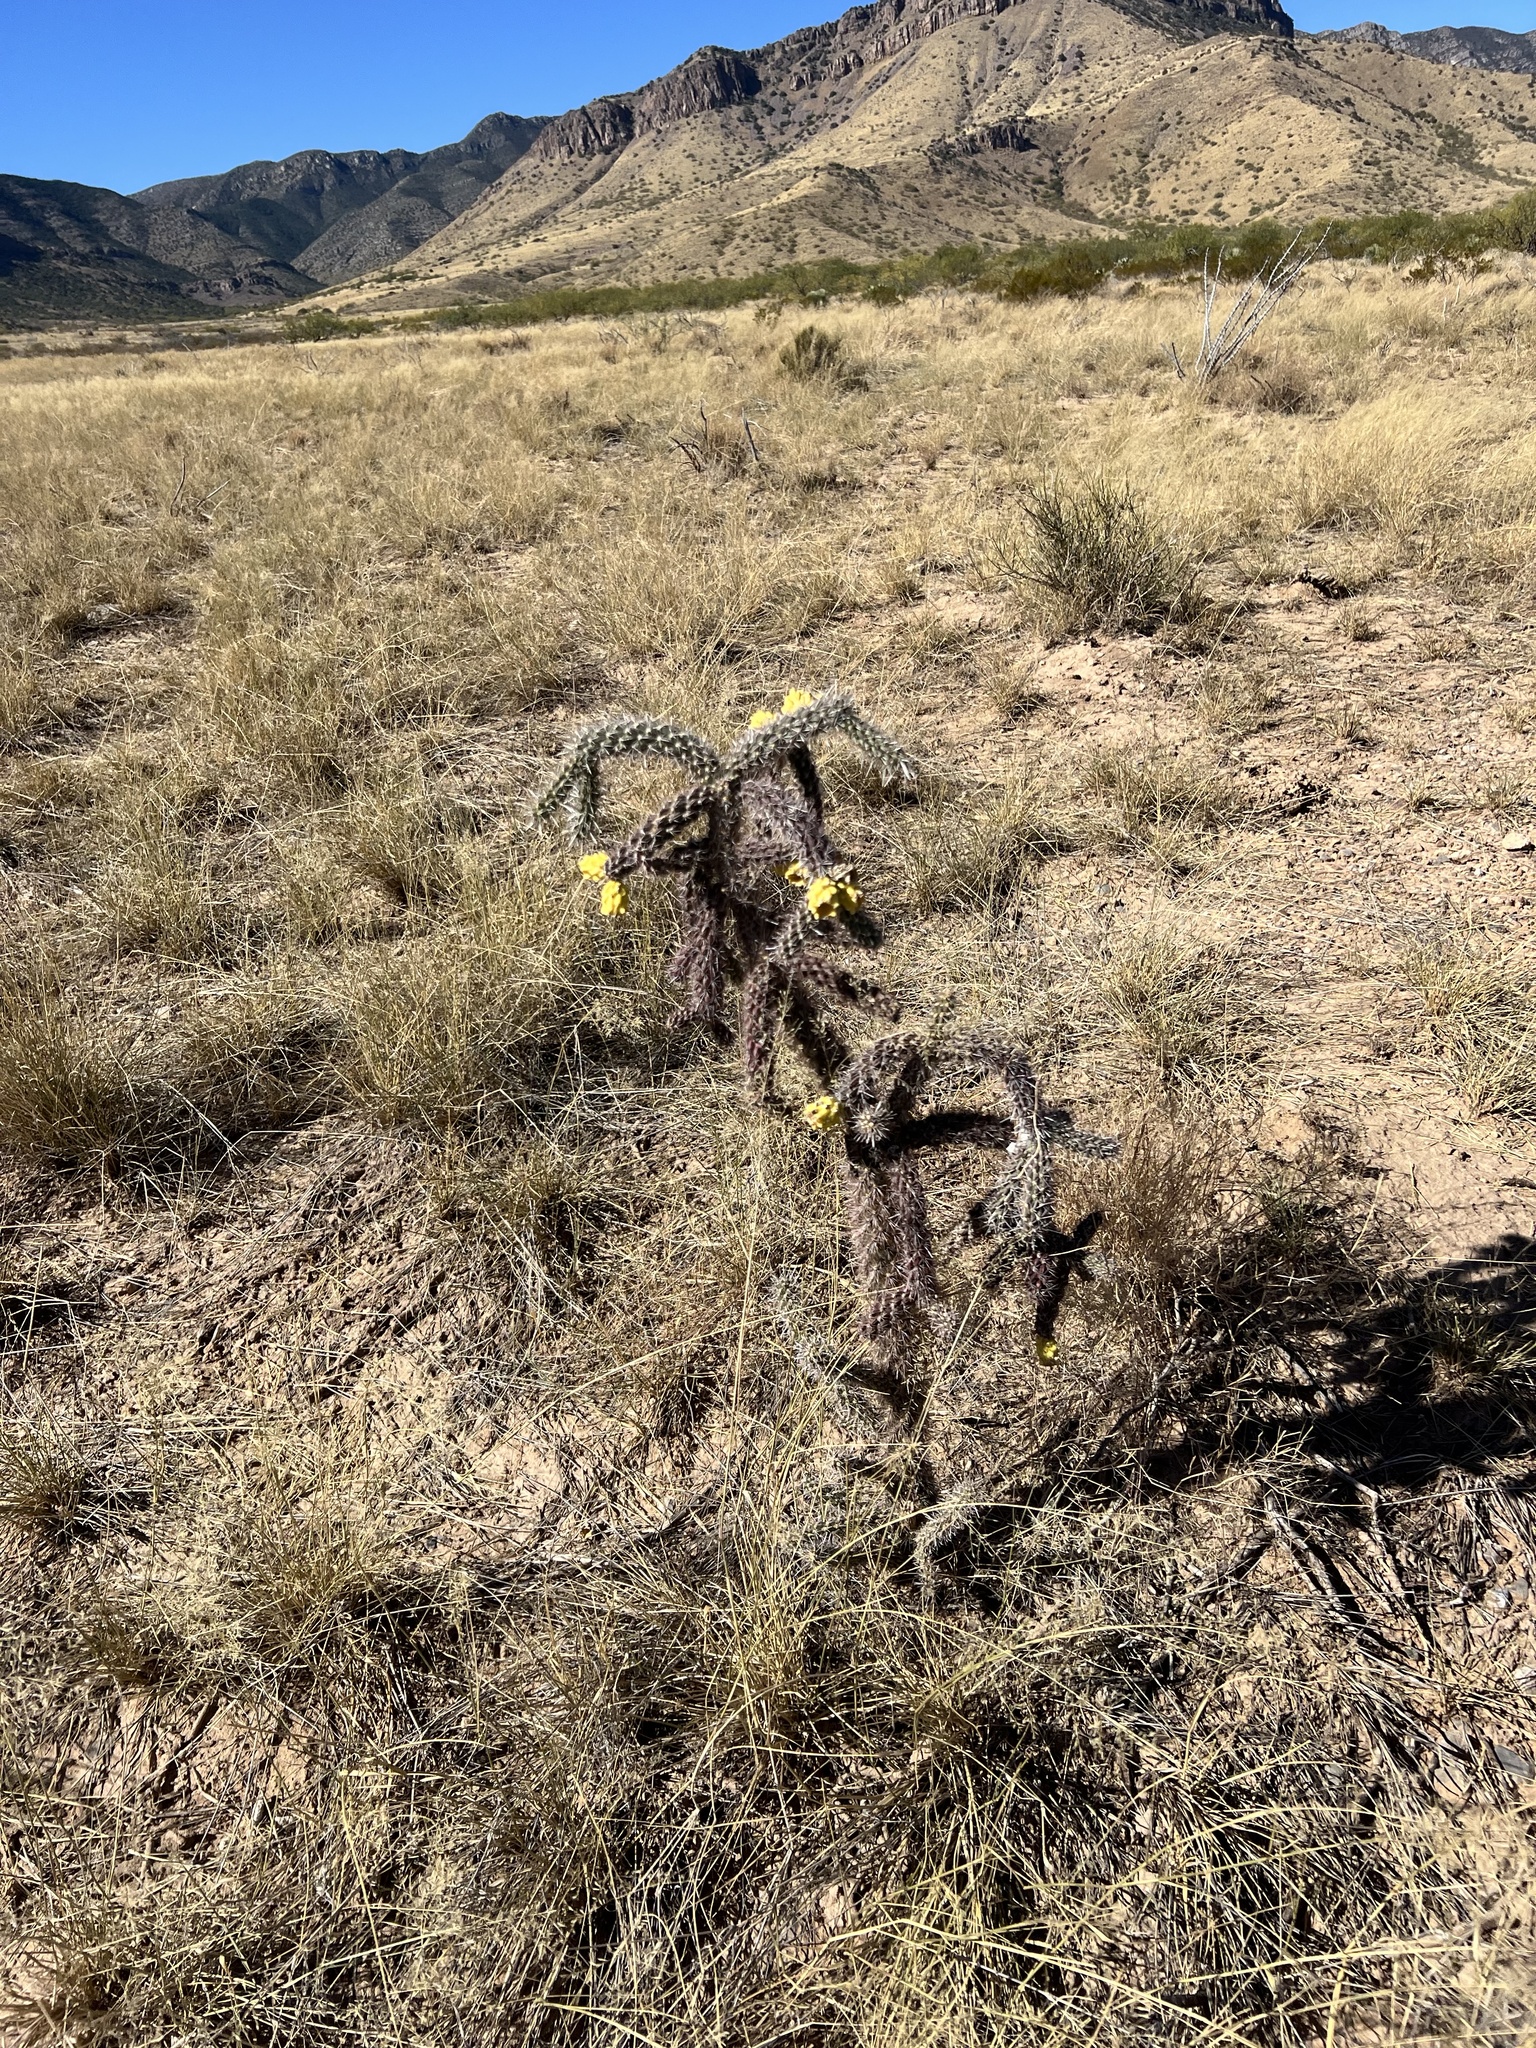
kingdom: Plantae
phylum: Tracheophyta
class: Magnoliopsida
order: Caryophyllales
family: Cactaceae
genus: Cylindropuntia
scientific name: Cylindropuntia imbricata
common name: Candelabrum cactus
